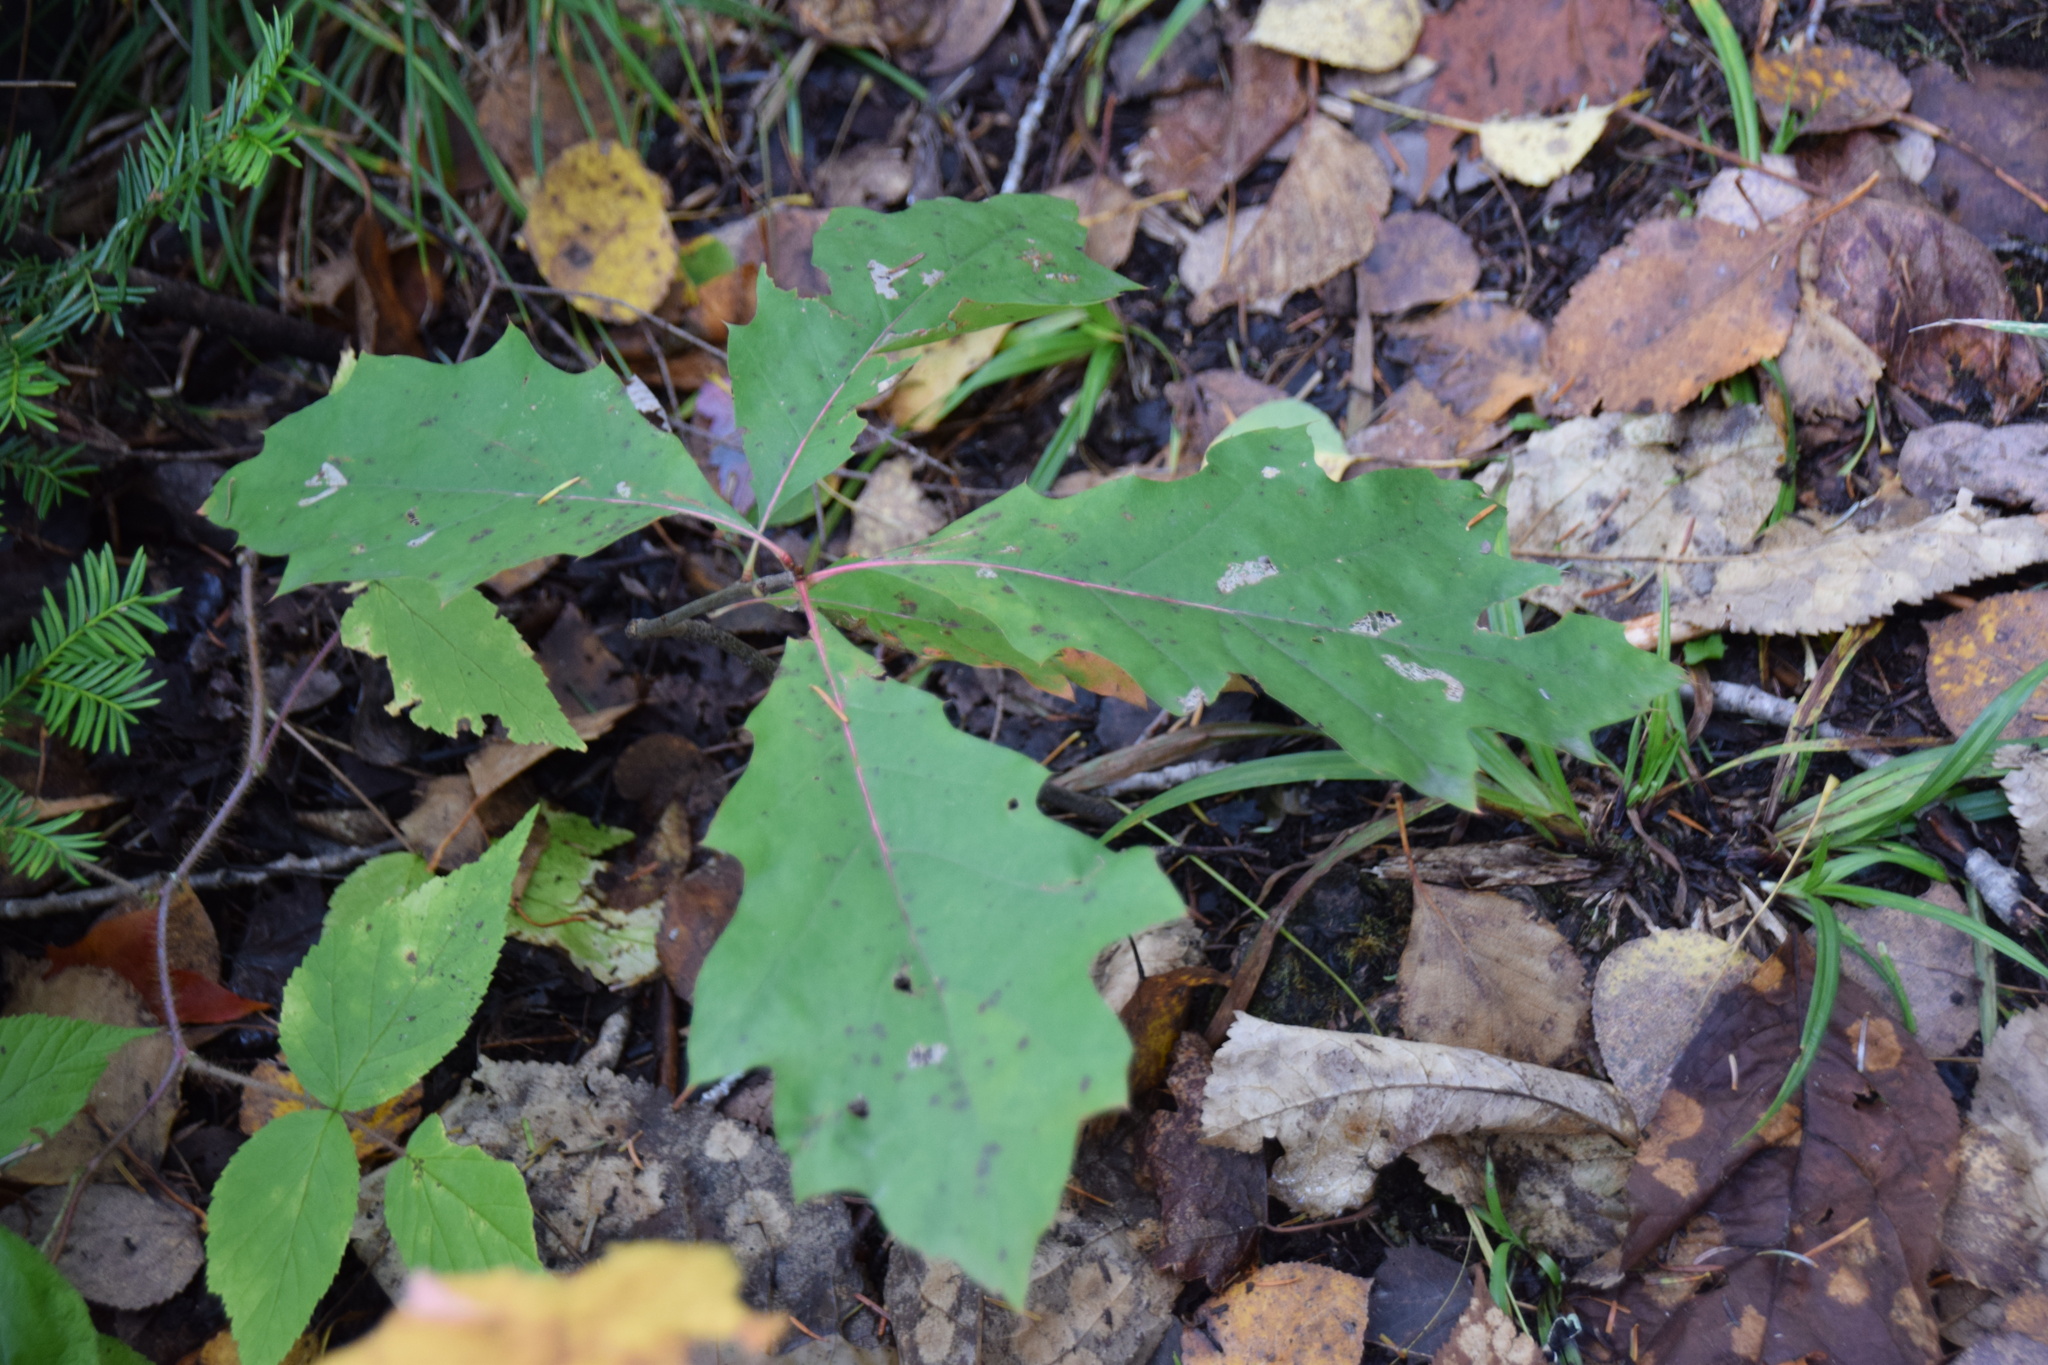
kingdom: Plantae
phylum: Tracheophyta
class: Magnoliopsida
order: Fagales
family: Fagaceae
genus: Quercus
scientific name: Quercus rubra
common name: Red oak
